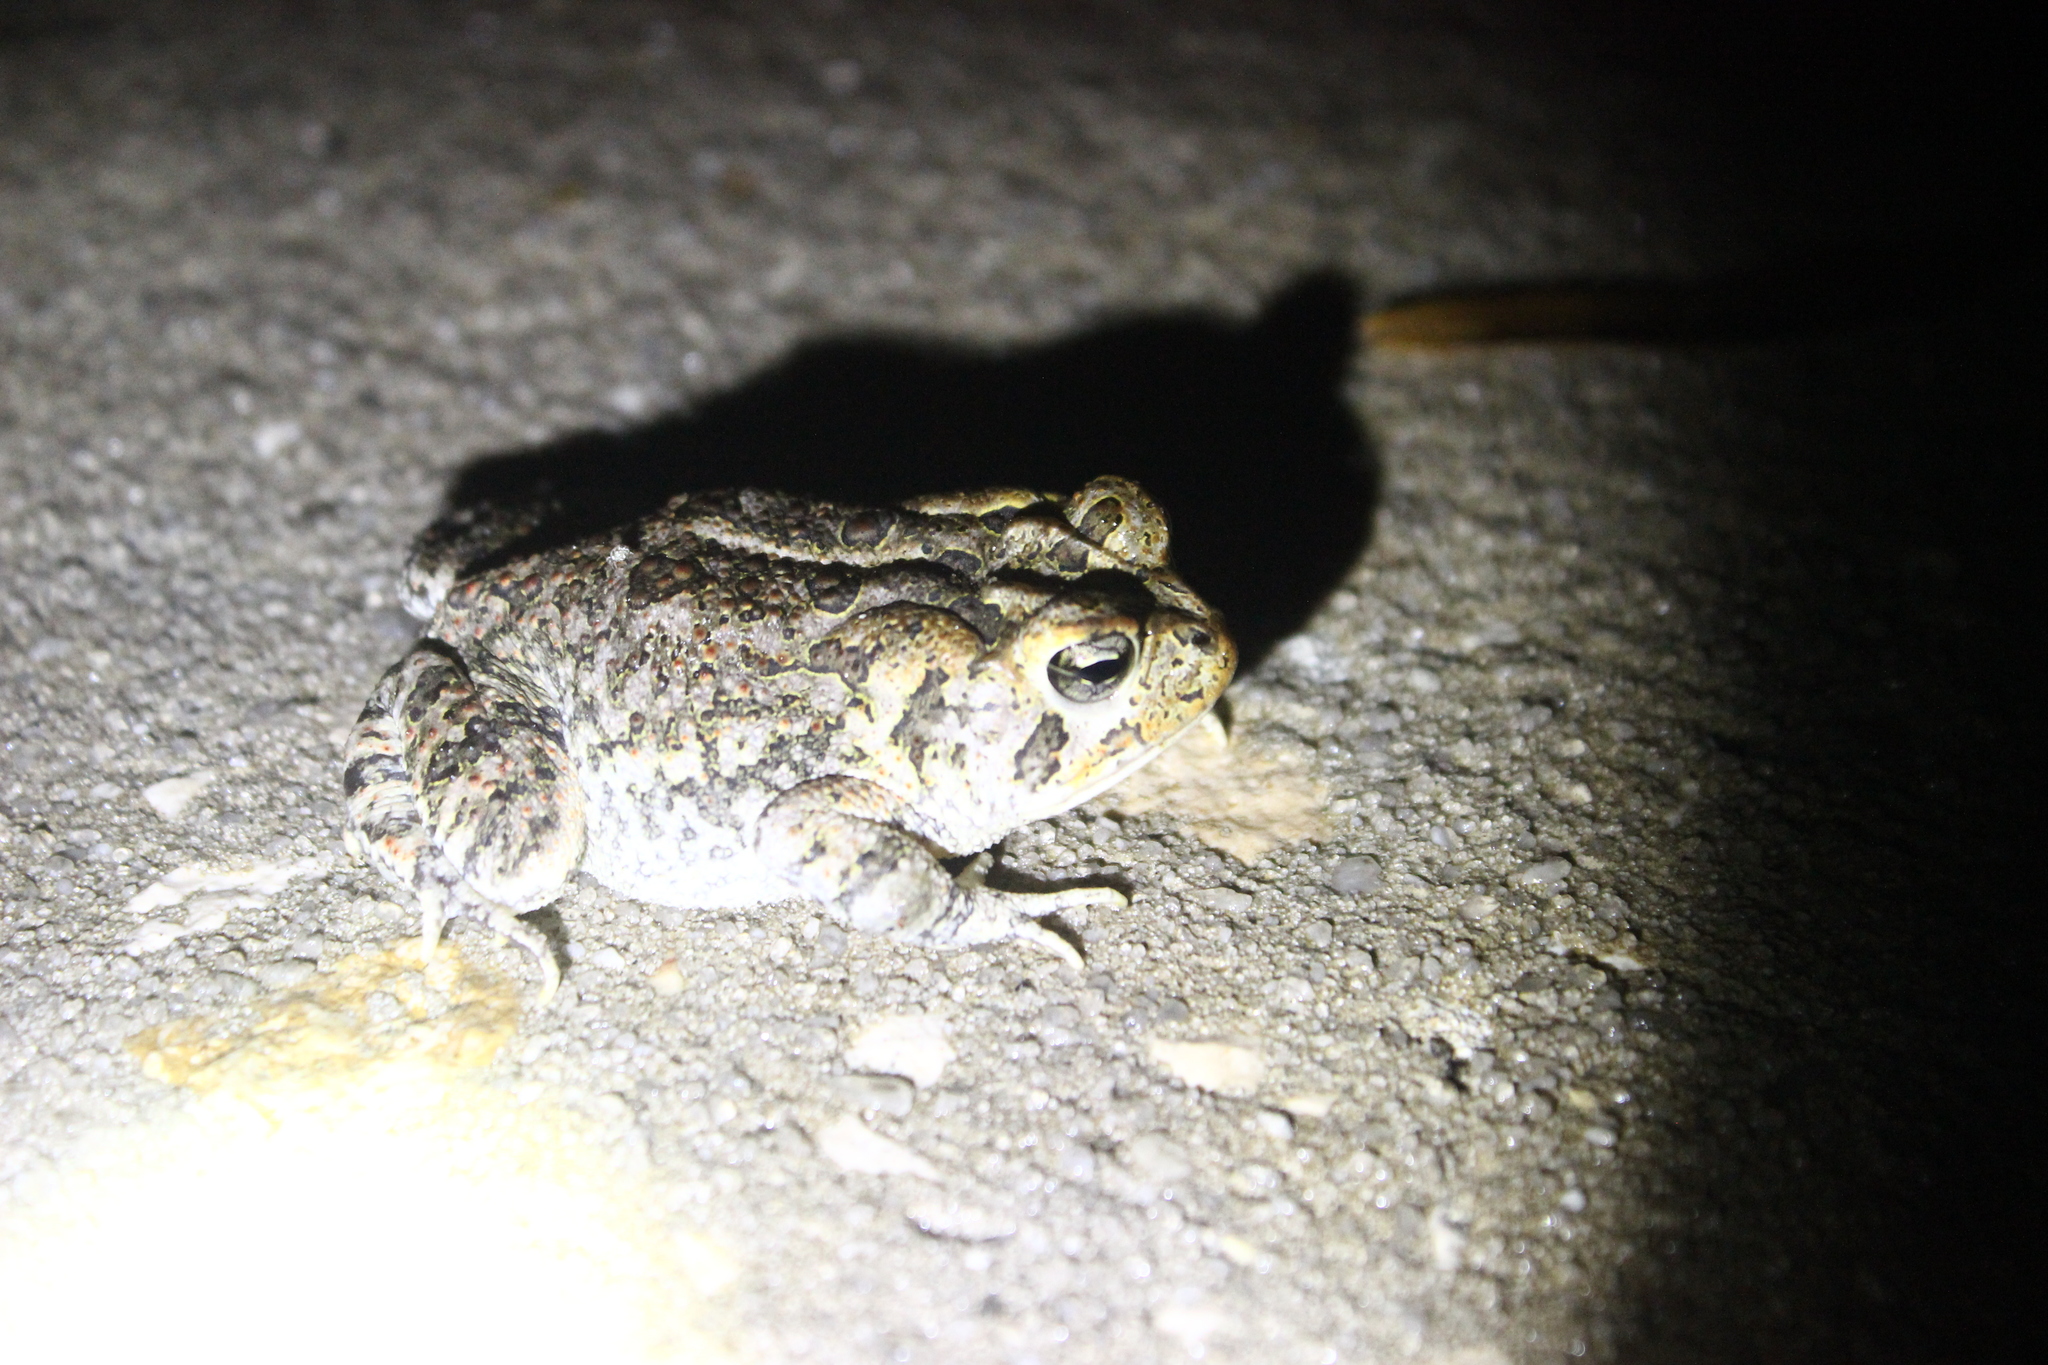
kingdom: Animalia
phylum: Chordata
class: Amphibia
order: Anura
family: Bufonidae
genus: Anaxyrus
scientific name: Anaxyrus terrestris
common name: Southern toad
